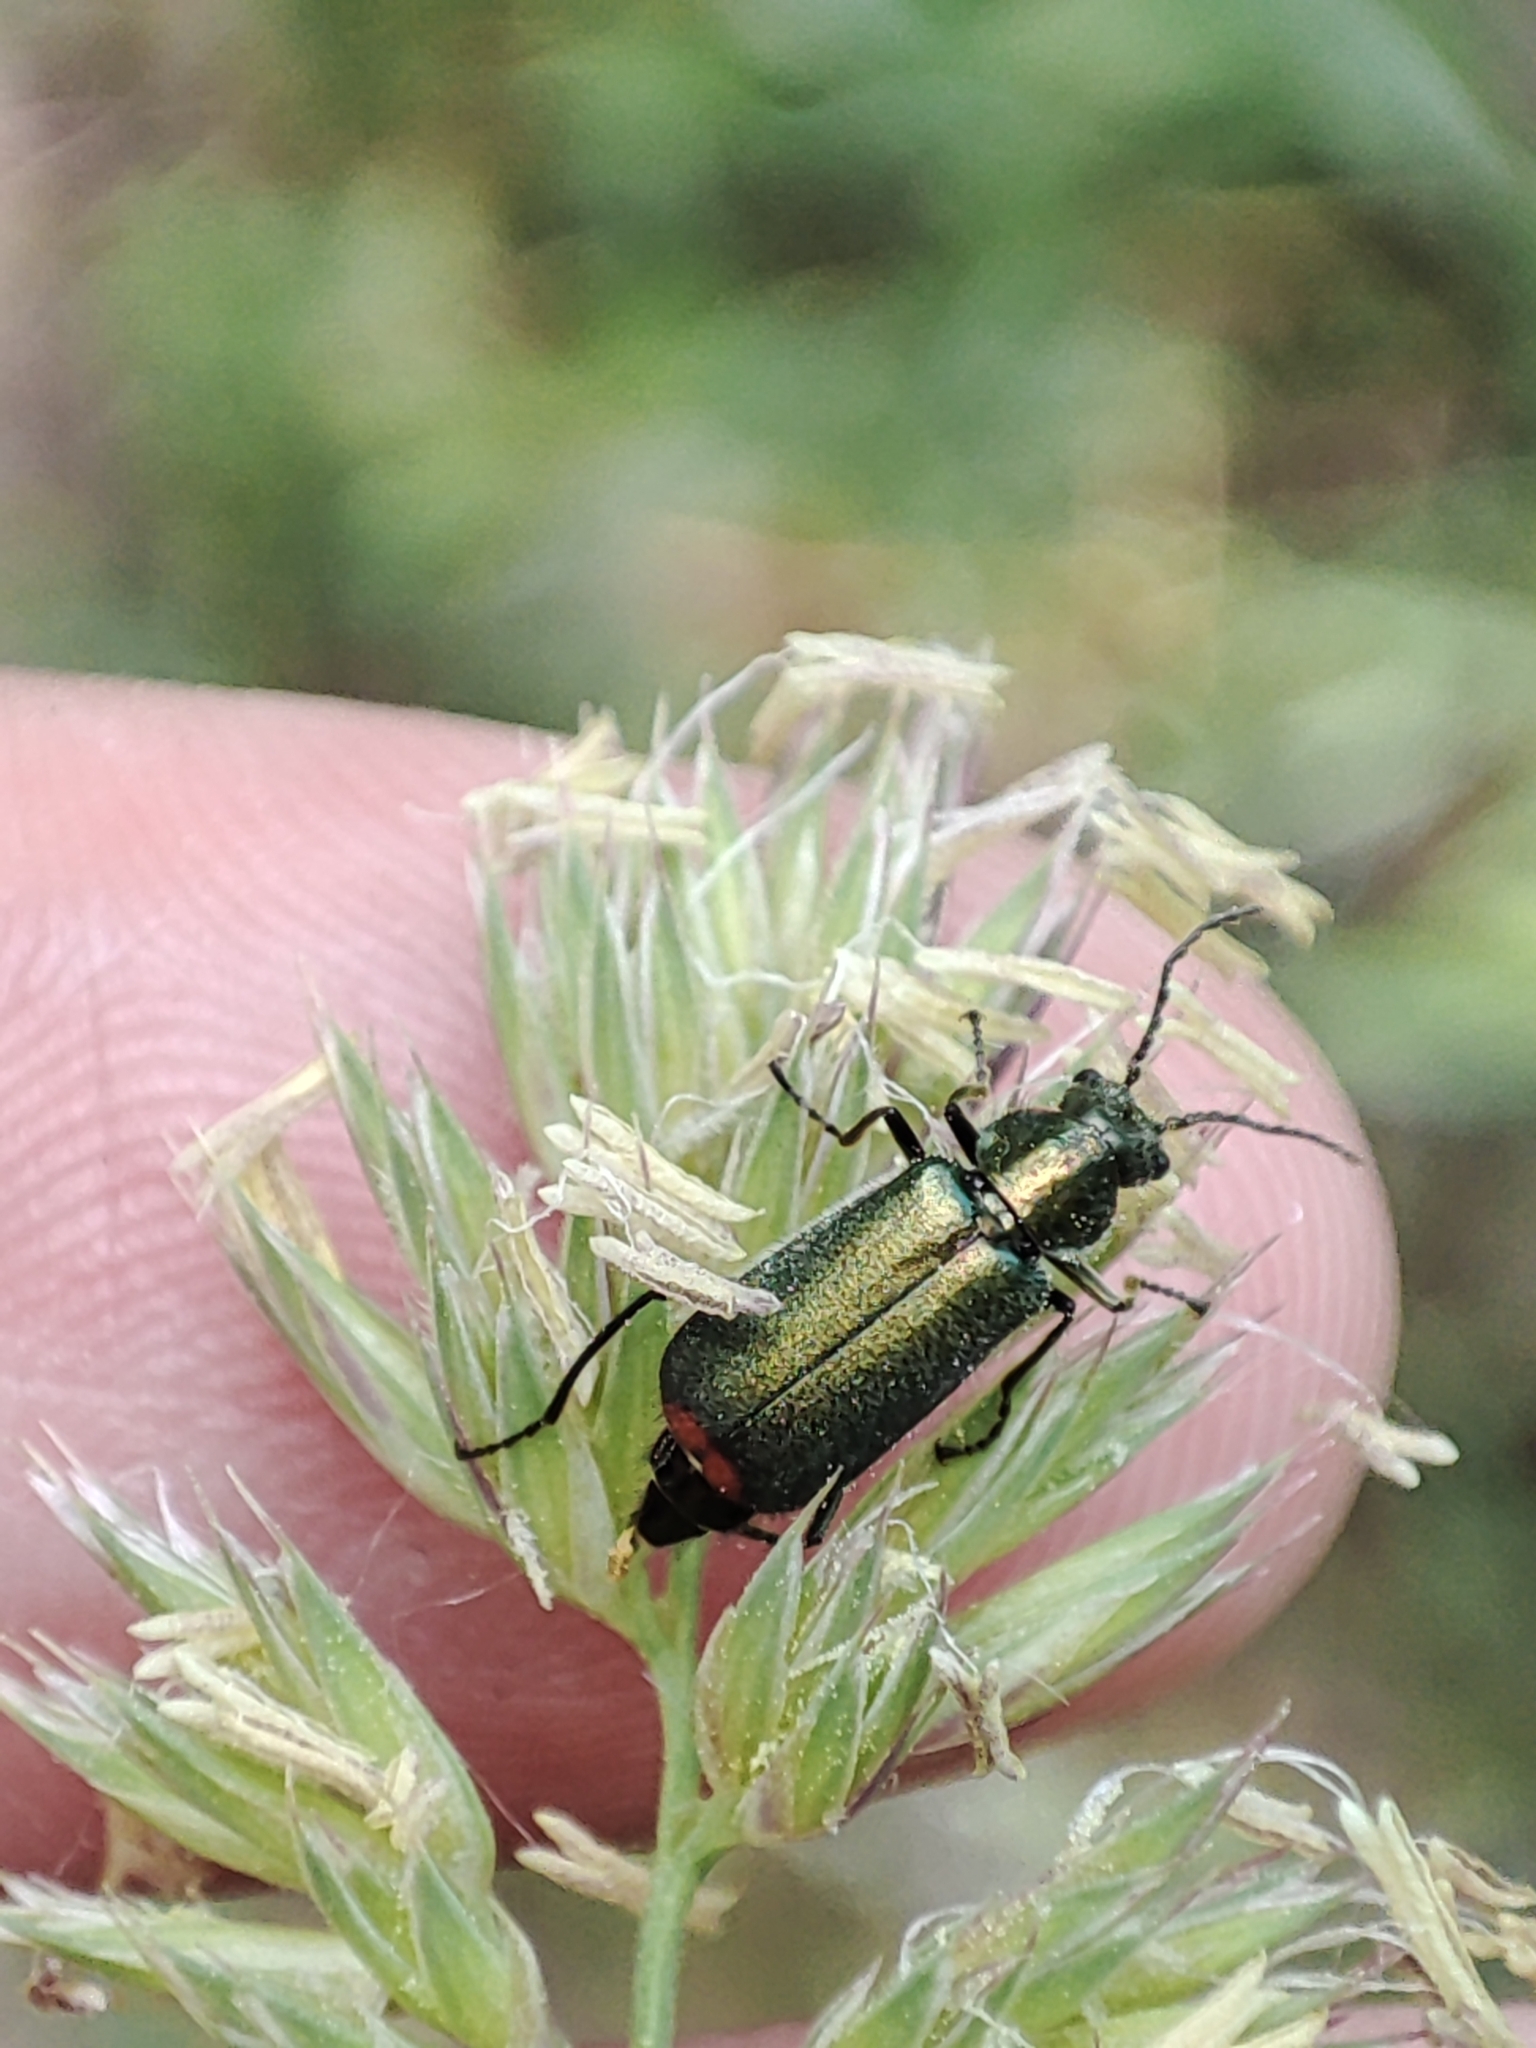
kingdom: Animalia
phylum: Arthropoda
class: Insecta
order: Coleoptera
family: Melyridae
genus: Malachius
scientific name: Malachius bipustulatus
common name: Malachite beetle
